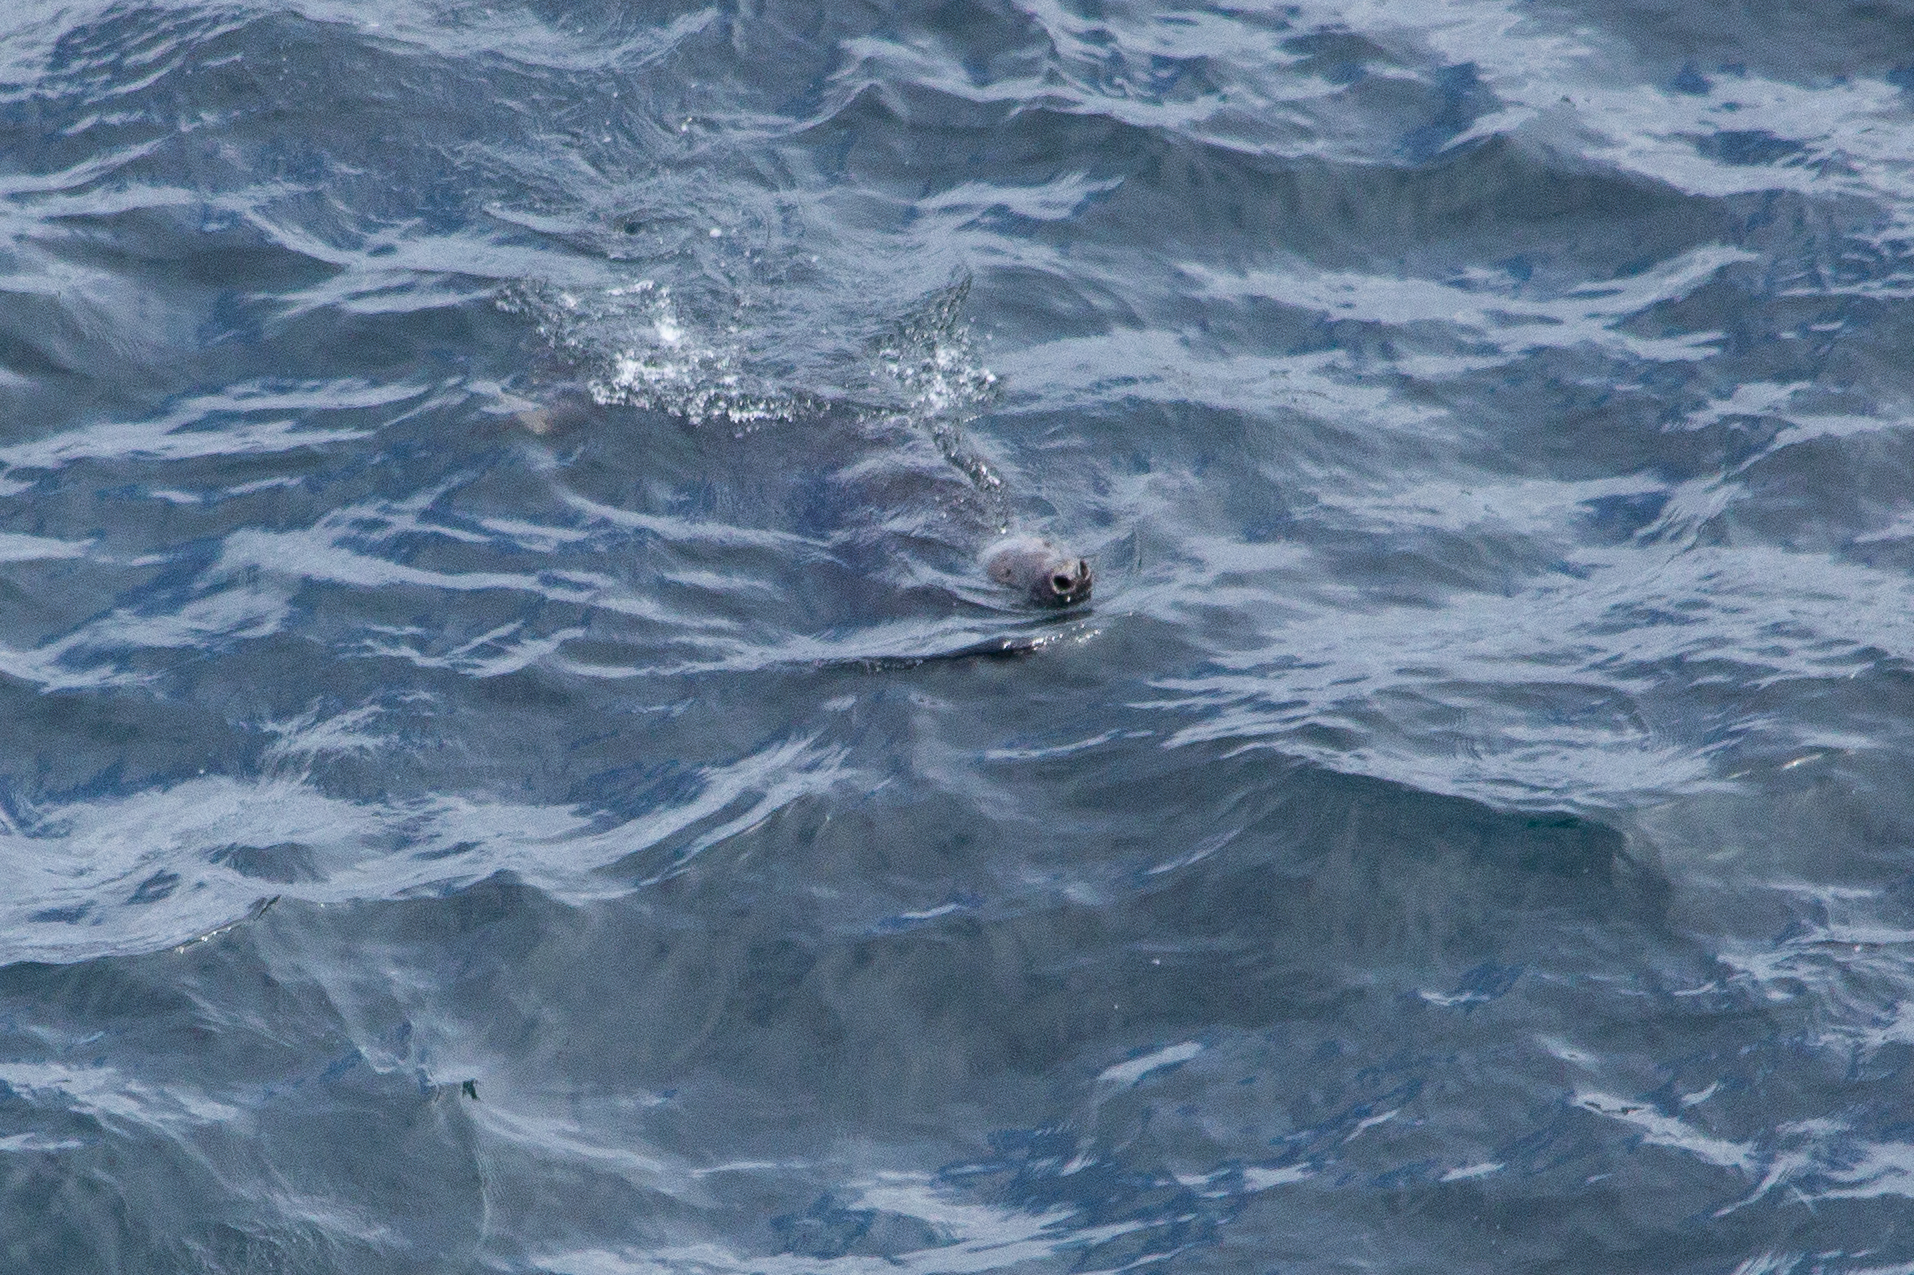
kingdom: Animalia
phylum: Chordata
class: Mammalia
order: Carnivora
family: Phocidae
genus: Halichoerus
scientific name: Halichoerus grypus
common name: Grey seal
